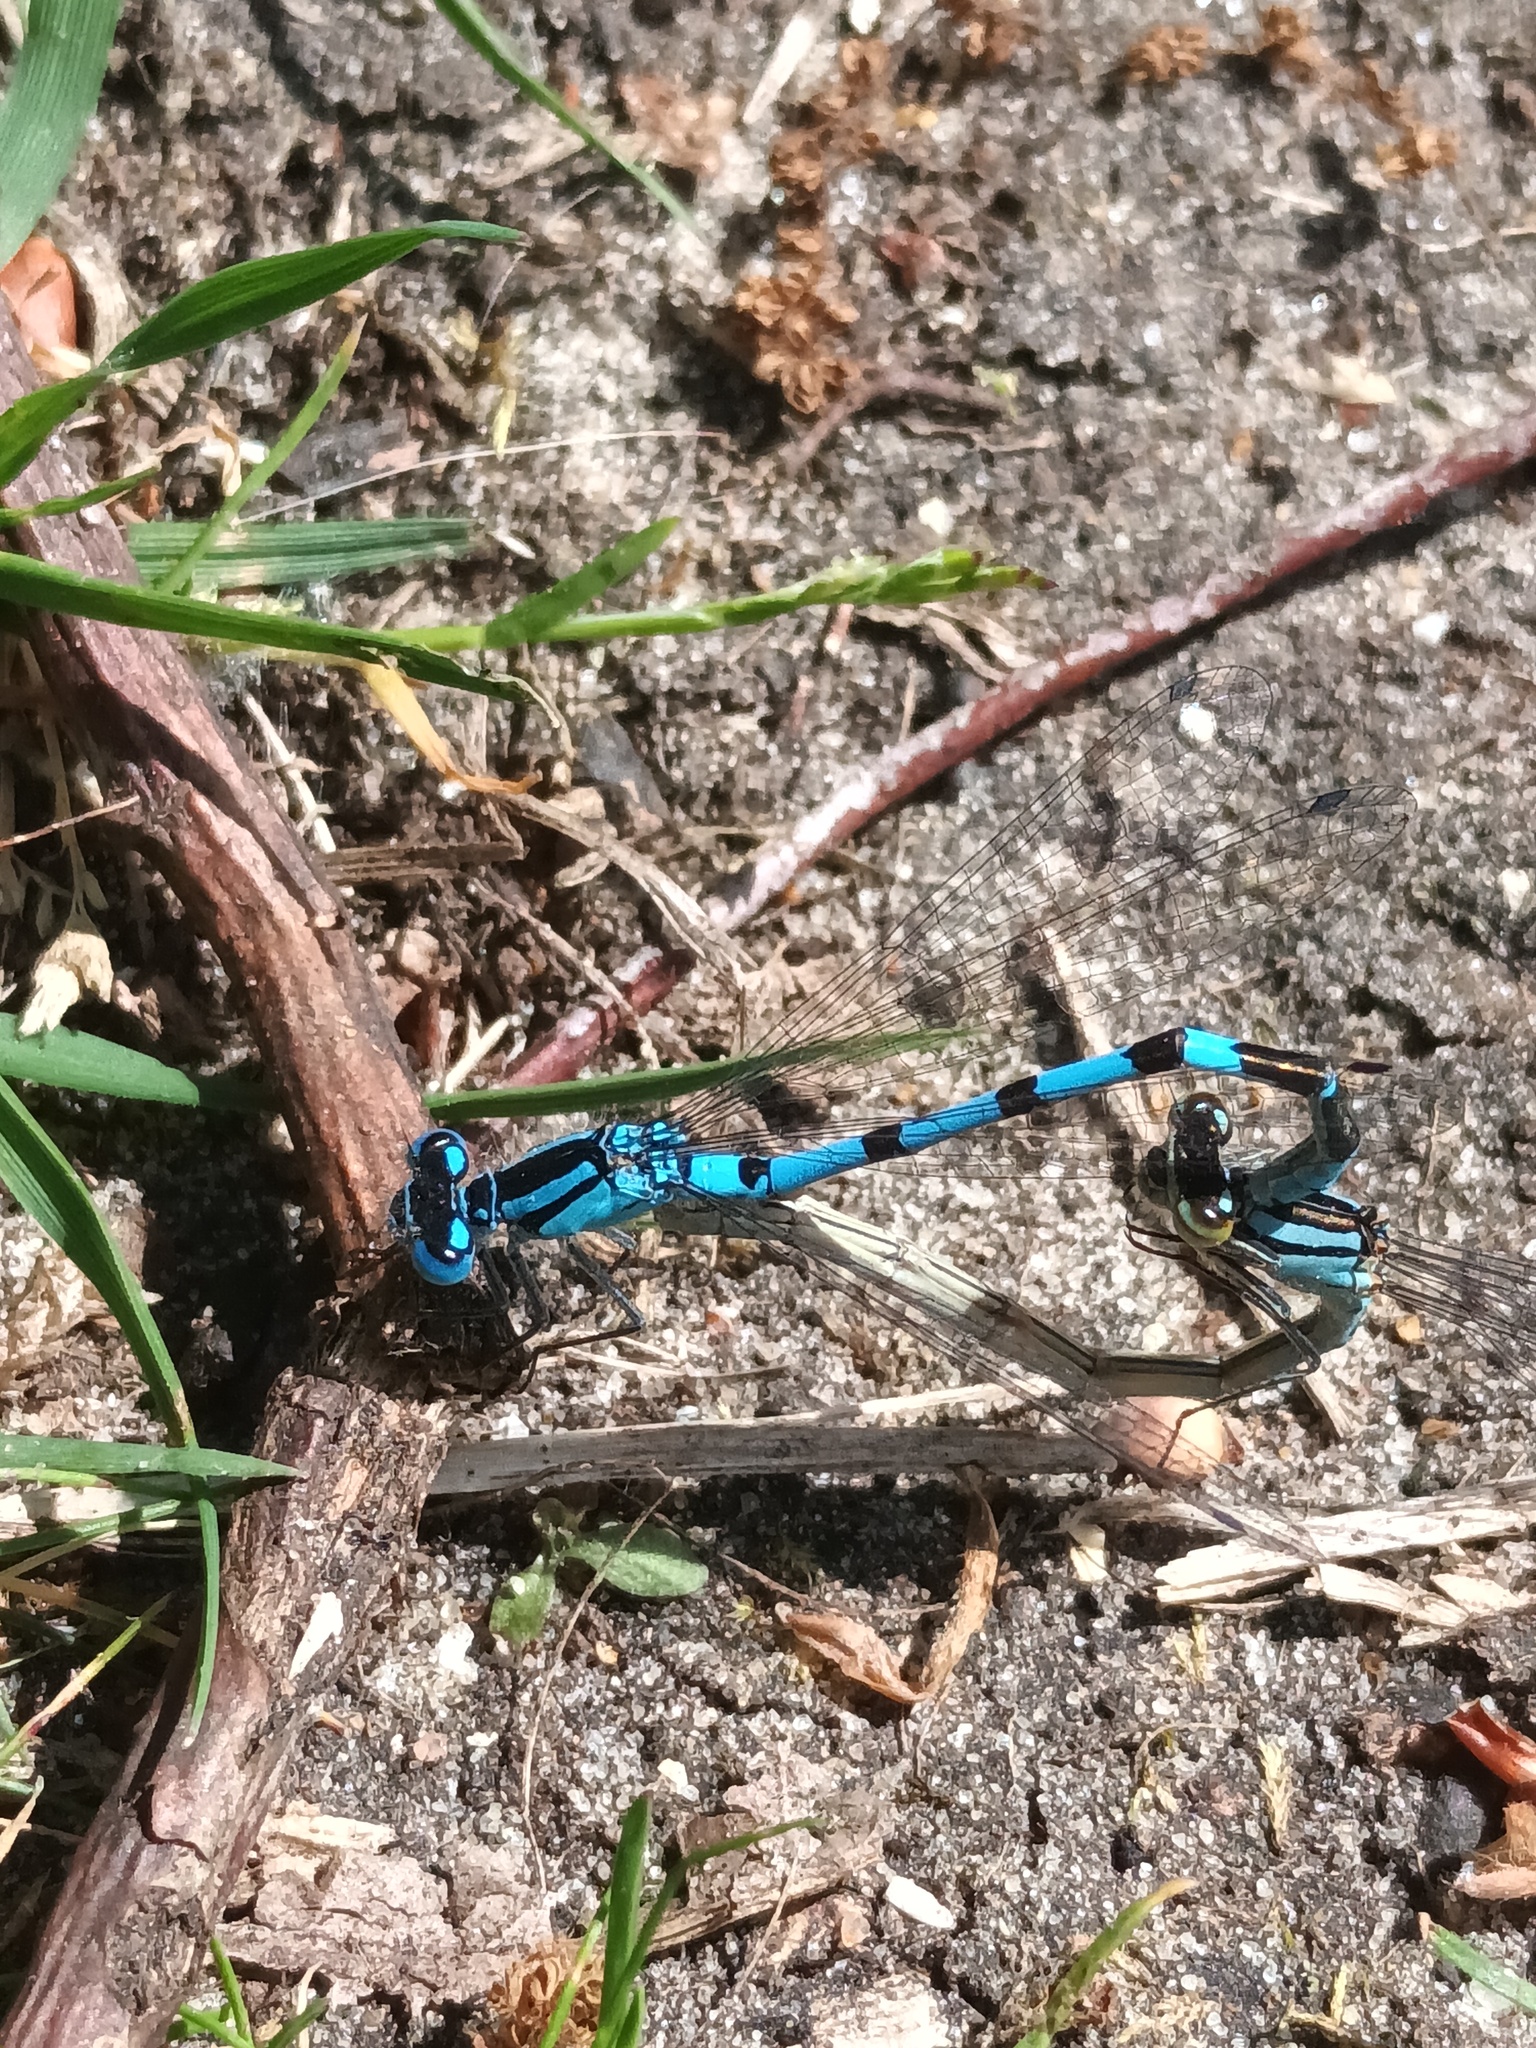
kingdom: Animalia
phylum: Arthropoda
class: Insecta
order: Odonata
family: Coenagrionidae
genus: Enallagma
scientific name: Enallagma cyathigerum
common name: Common blue damselfly
